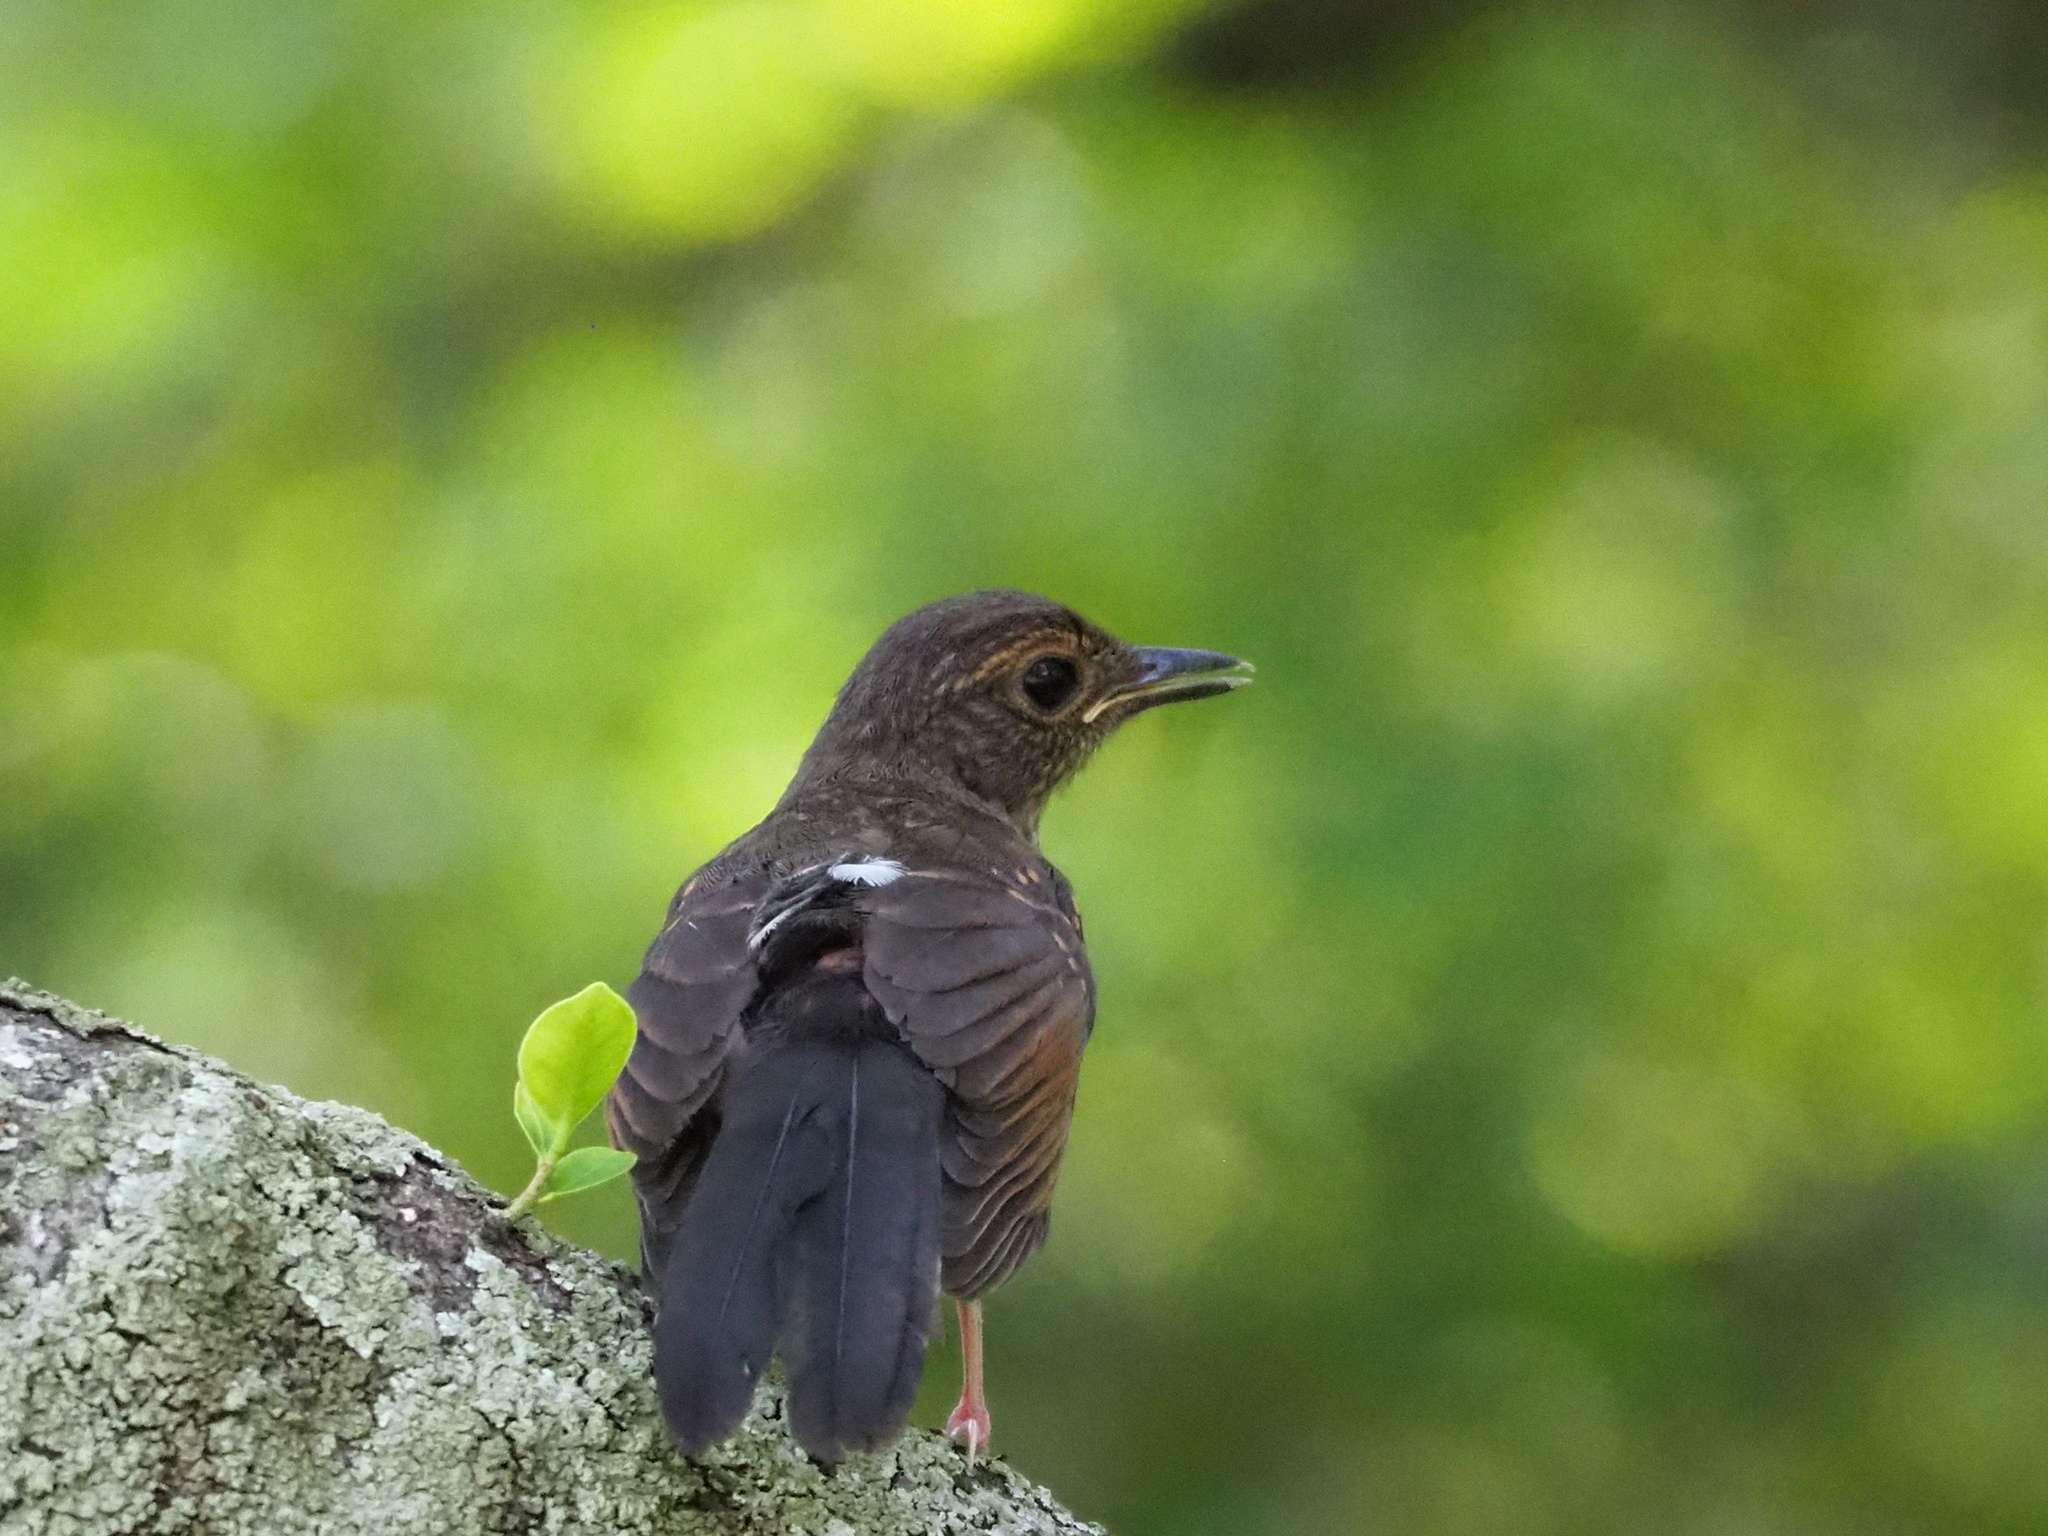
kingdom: Animalia
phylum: Chordata
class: Aves
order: Passeriformes
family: Muscicapidae
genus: Copsychus
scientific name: Copsychus malabaricus
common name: White-rumped shama
